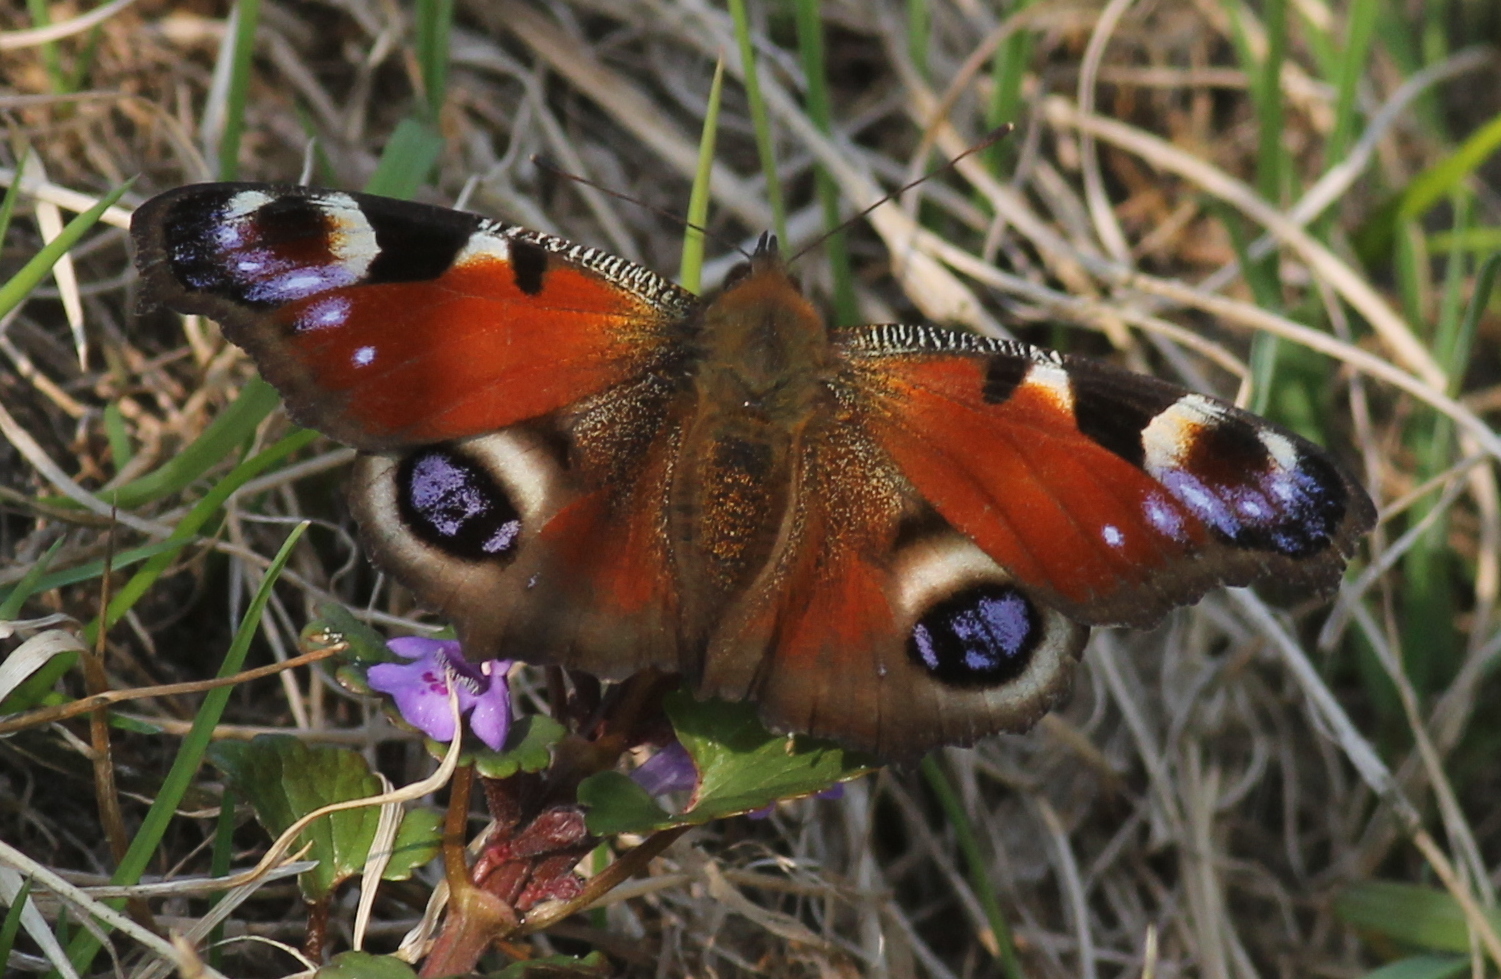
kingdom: Animalia
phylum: Arthropoda
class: Insecta
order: Lepidoptera
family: Nymphalidae
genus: Aglais
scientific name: Aglais io
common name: Peacock
